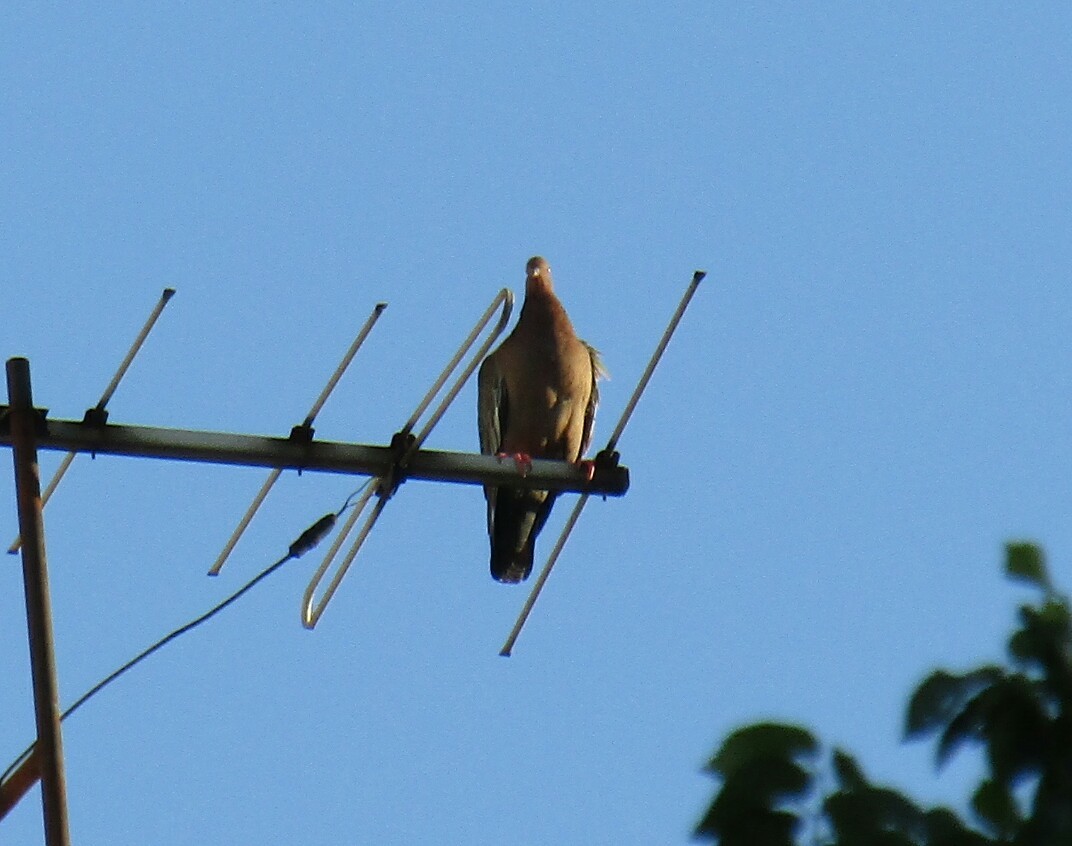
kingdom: Animalia
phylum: Chordata
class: Aves
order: Columbiformes
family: Columbidae
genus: Patagioenas
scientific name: Patagioenas picazuro
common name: Picazuro pigeon
